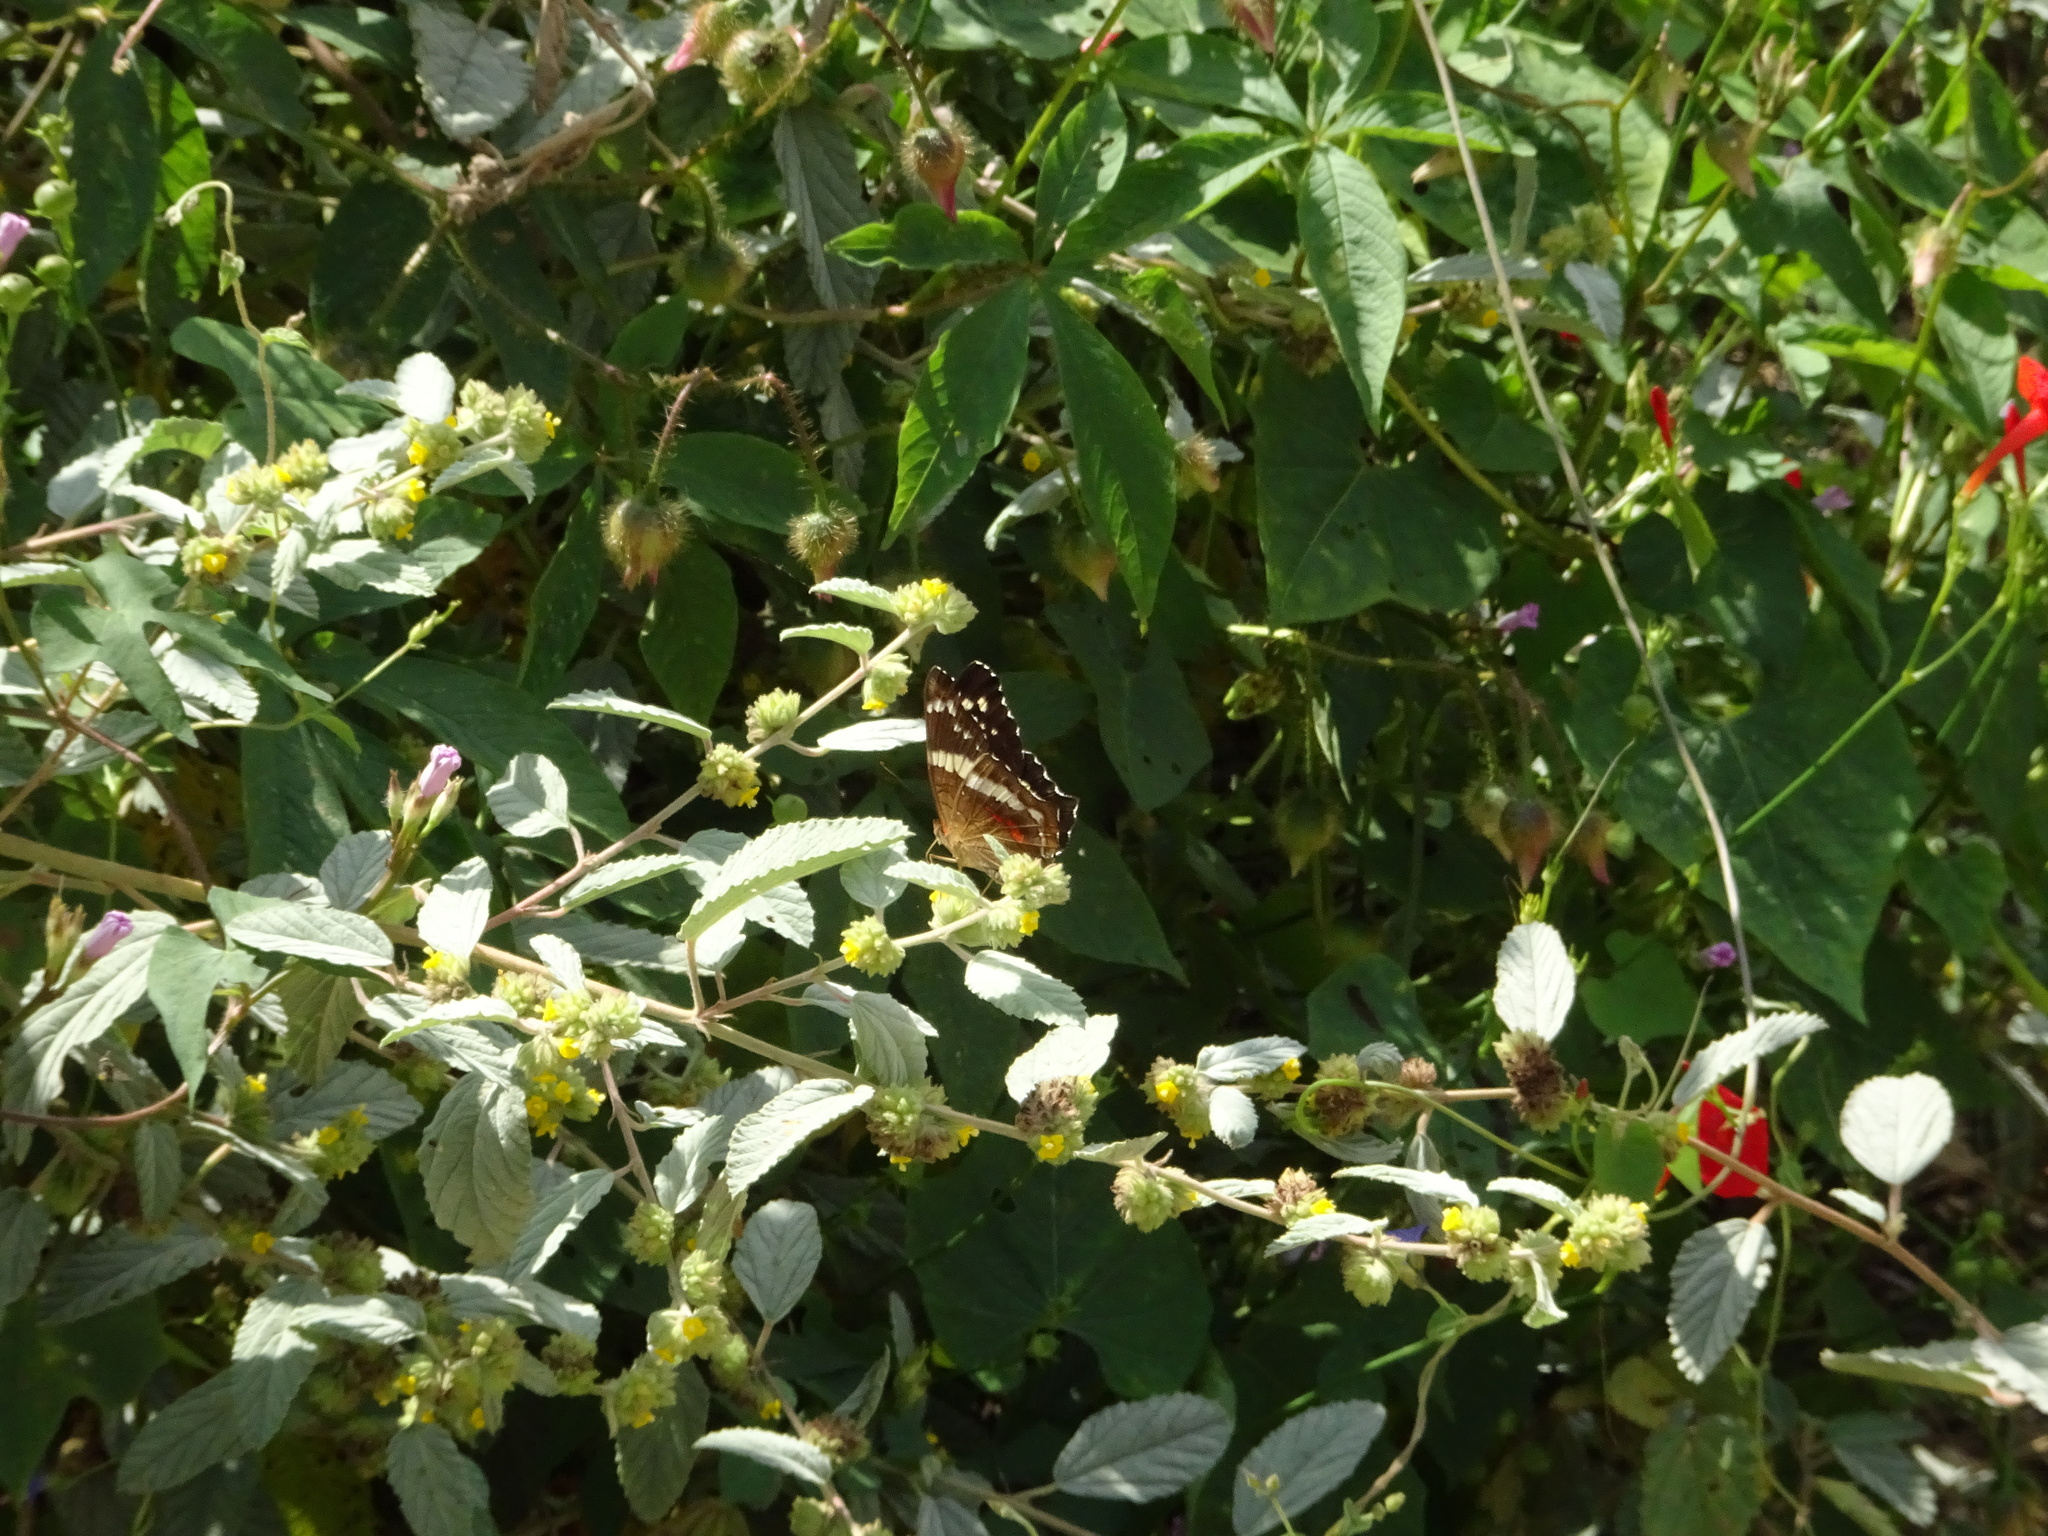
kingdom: Animalia
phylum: Arthropoda
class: Insecta
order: Lepidoptera
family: Nymphalidae
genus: Anartia
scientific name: Anartia fatima
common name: Banded peacock
